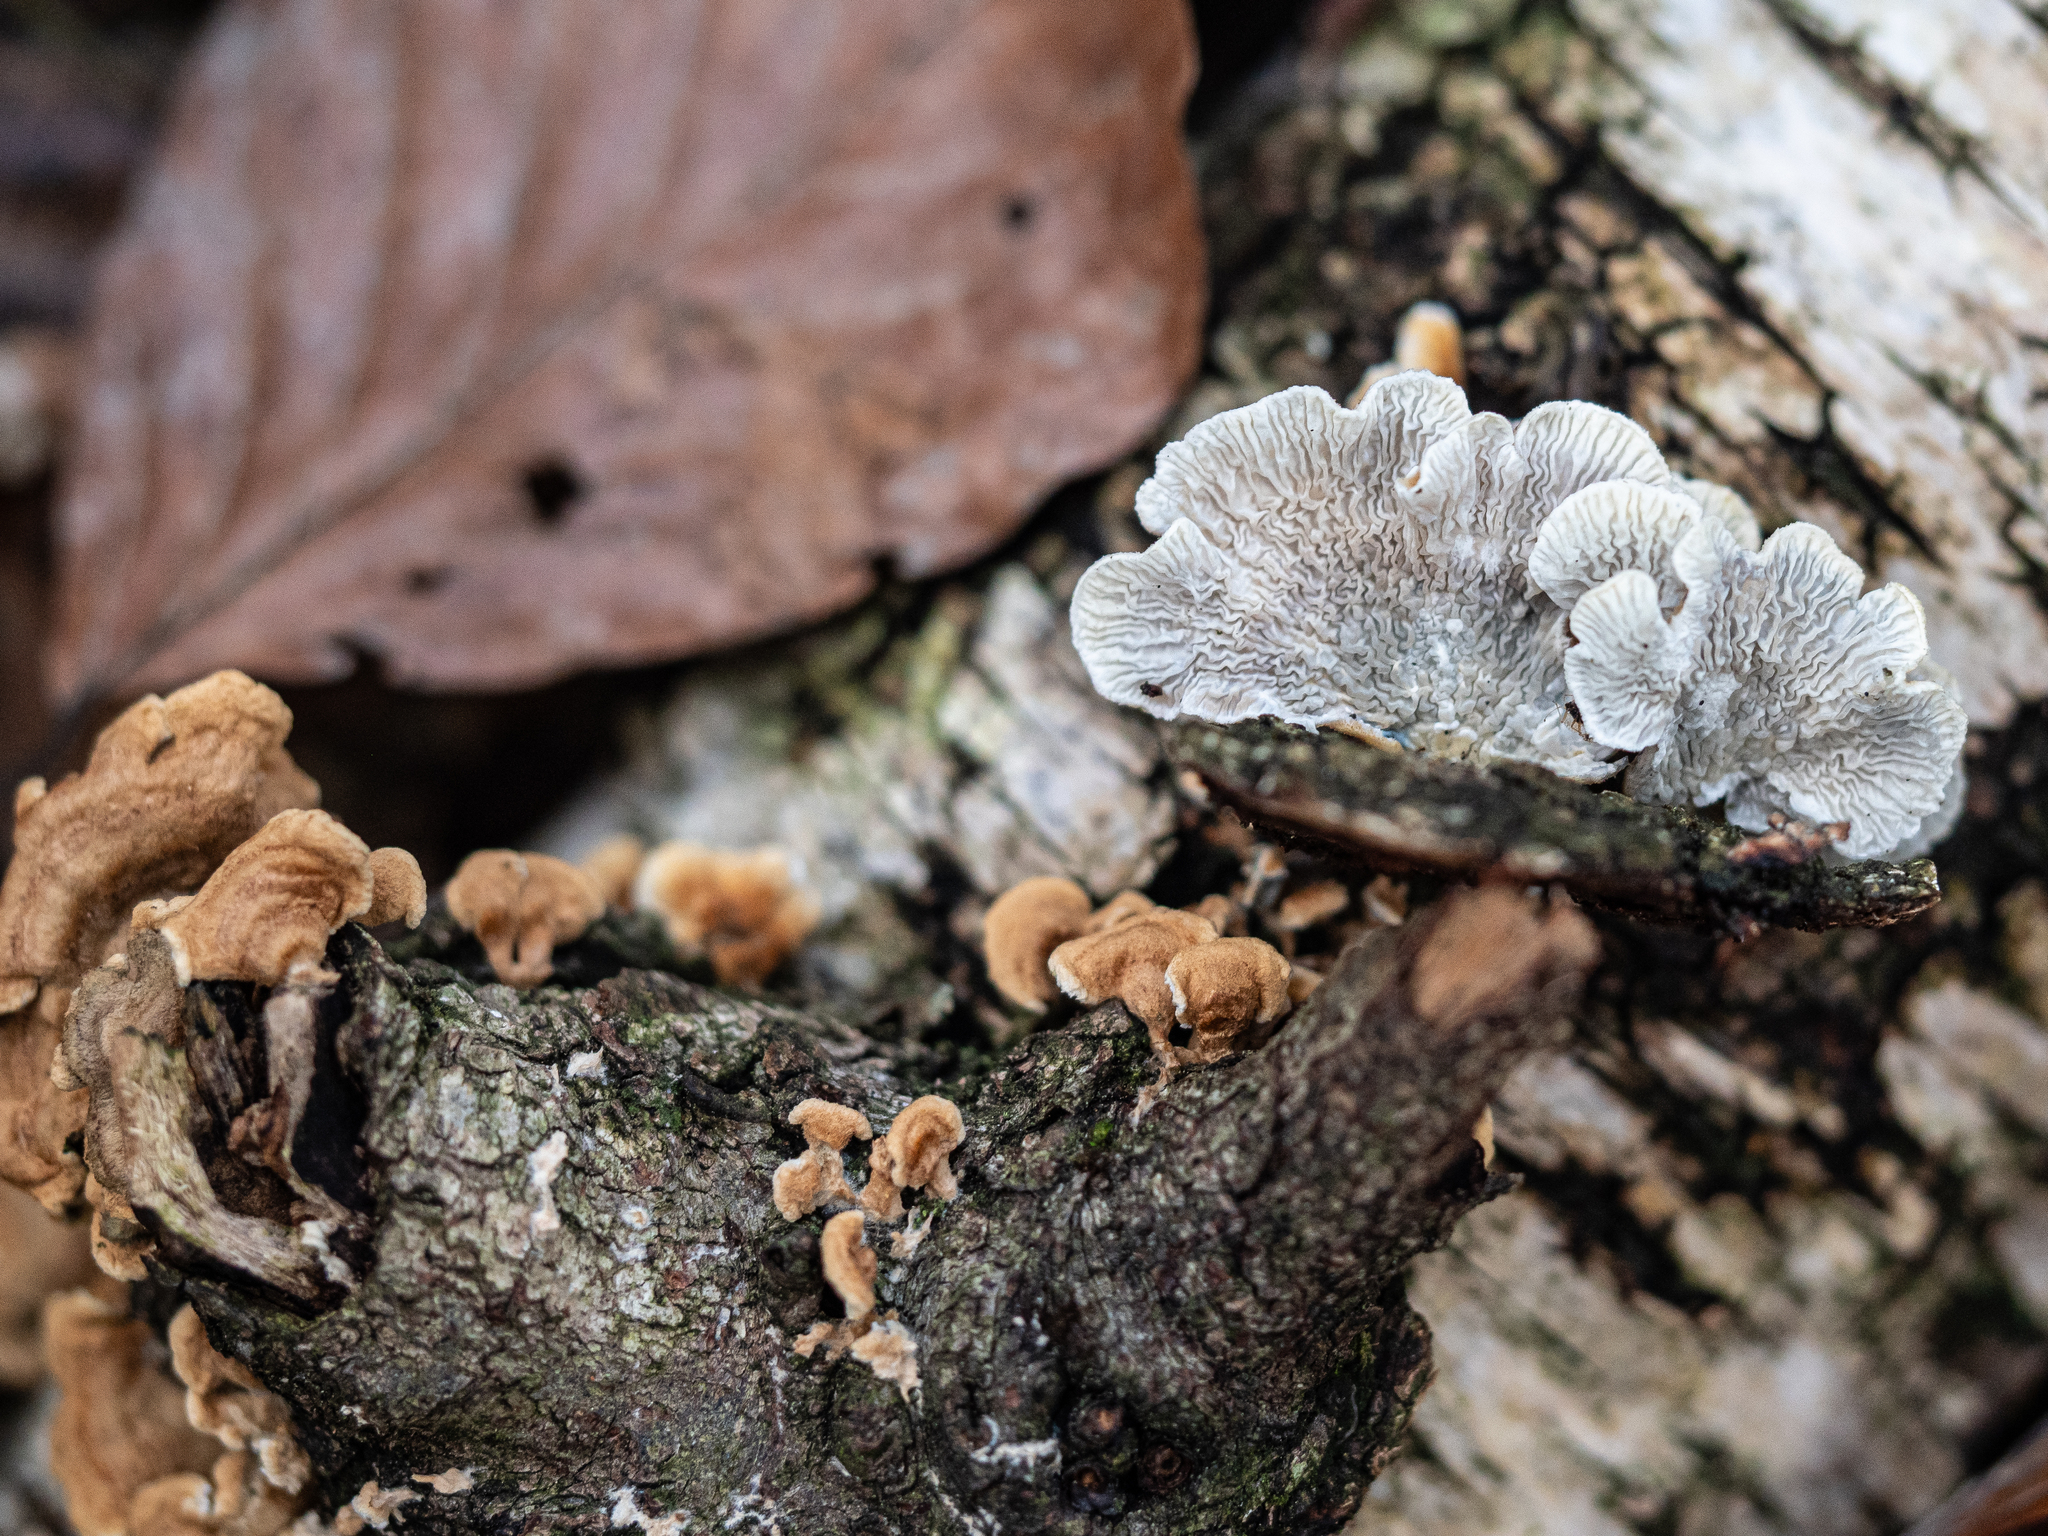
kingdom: Fungi
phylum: Basidiomycota
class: Agaricomycetes
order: Amylocorticiales
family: Amylocorticiaceae
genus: Plicaturopsis
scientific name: Plicaturopsis crispa
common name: Crimped gill
